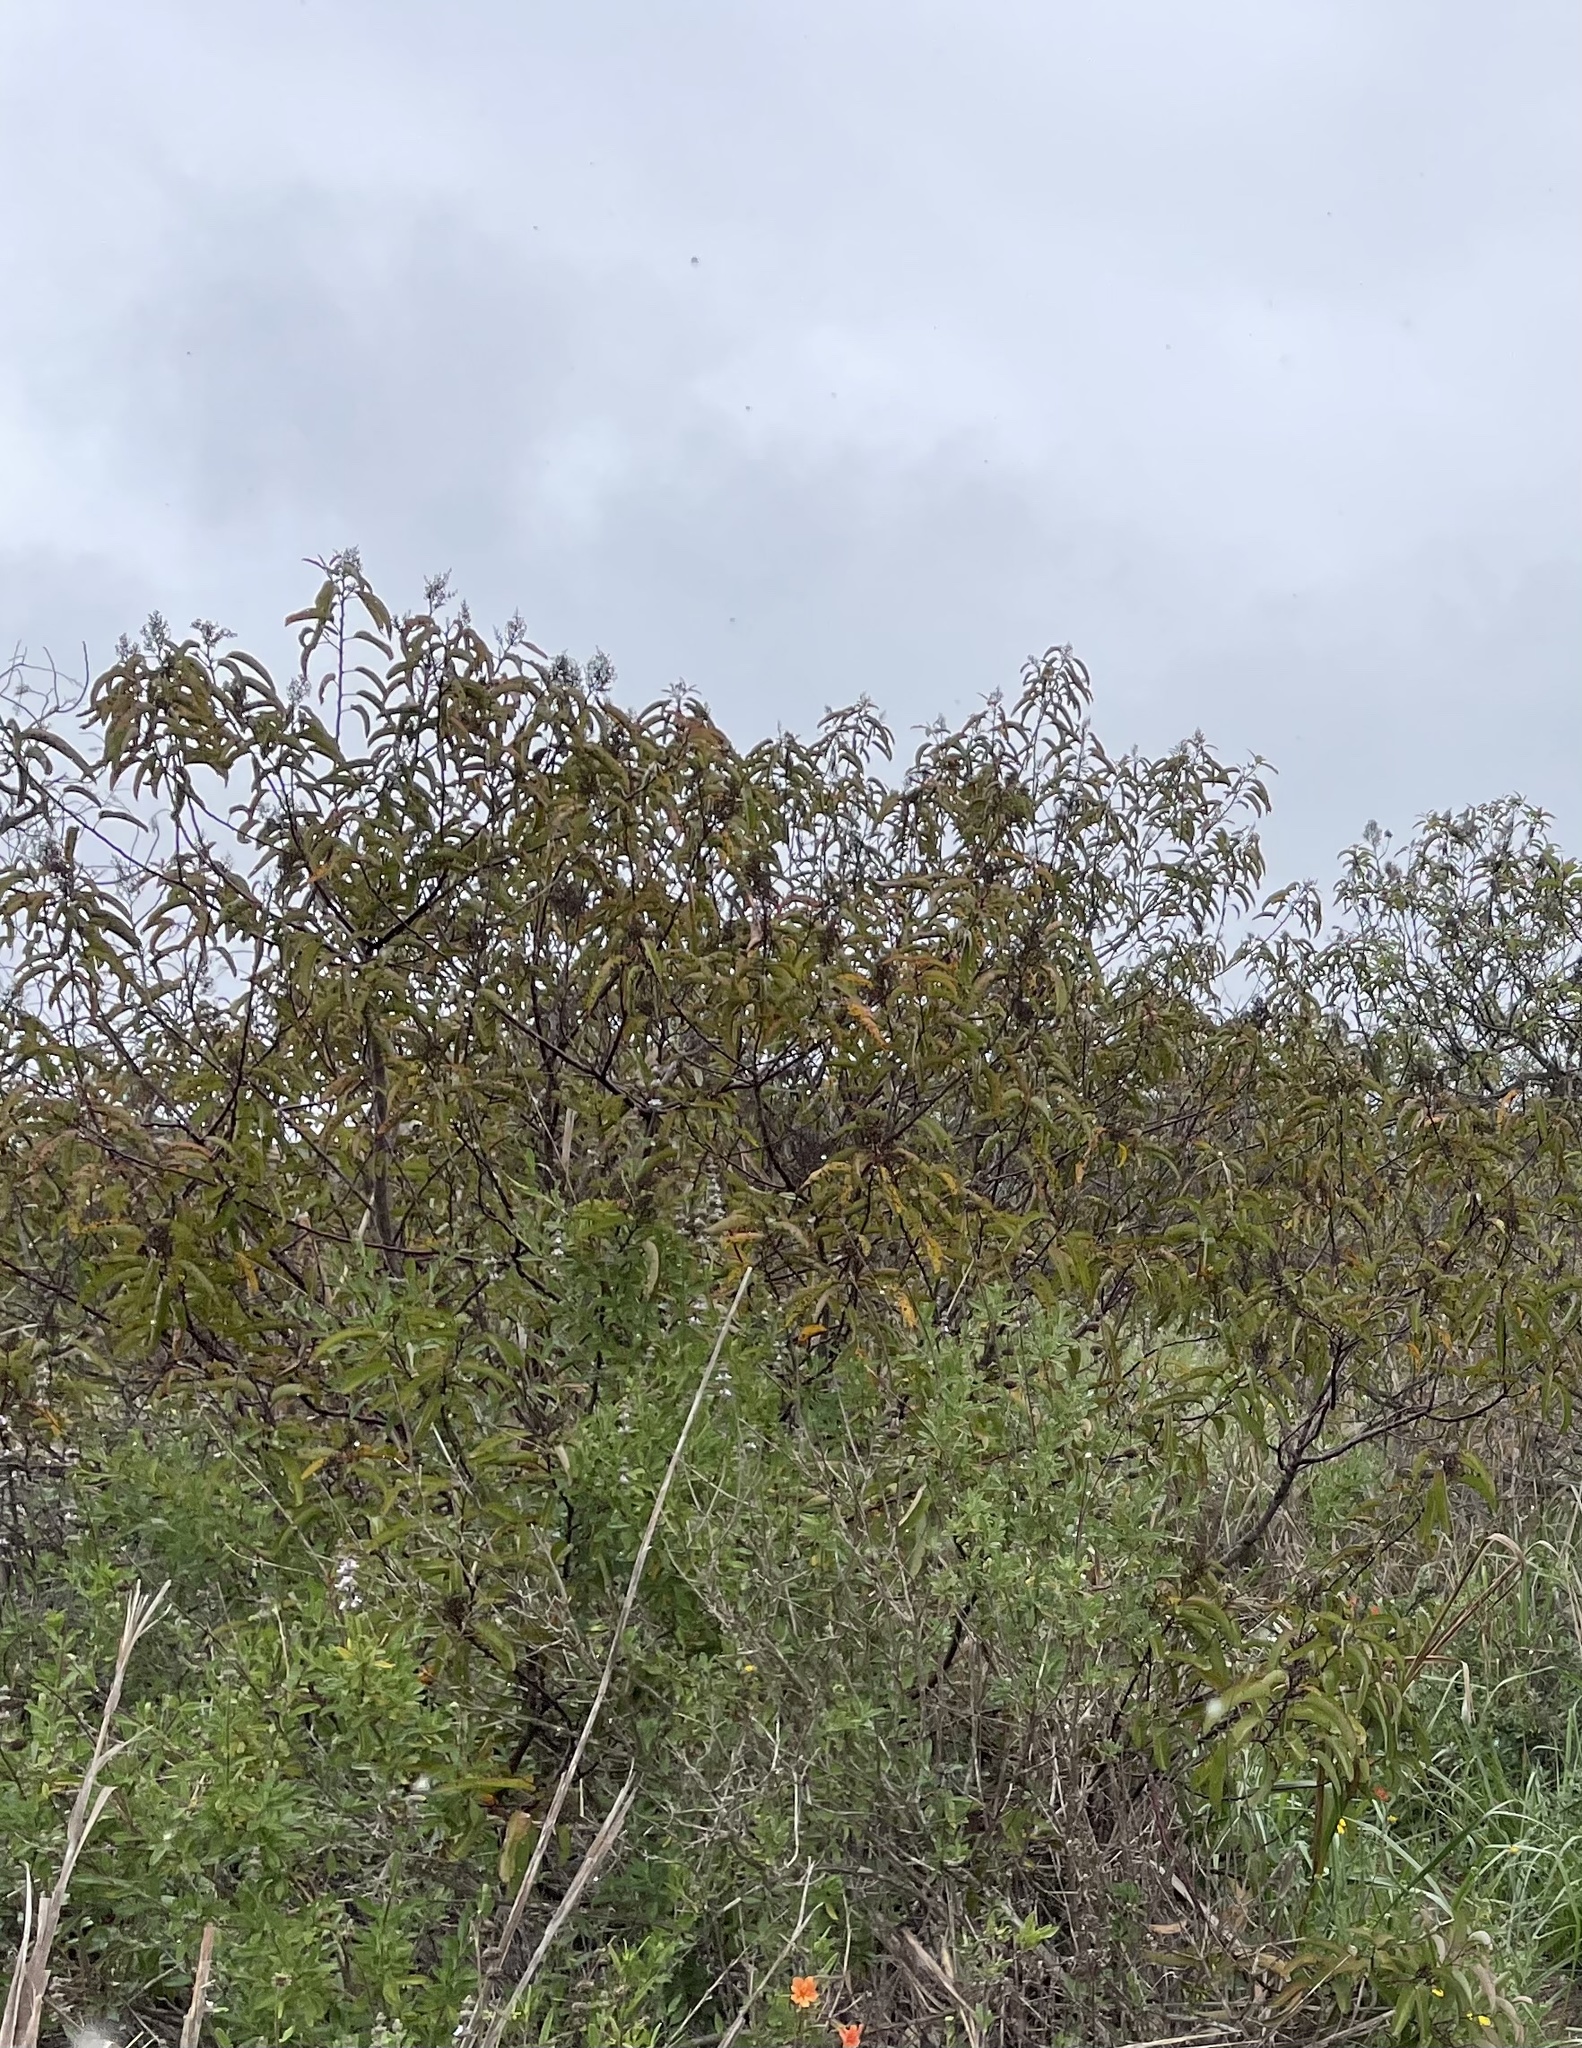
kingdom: Plantae
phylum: Tracheophyta
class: Magnoliopsida
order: Sapindales
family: Anacardiaceae
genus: Malosma
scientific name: Malosma laurina
